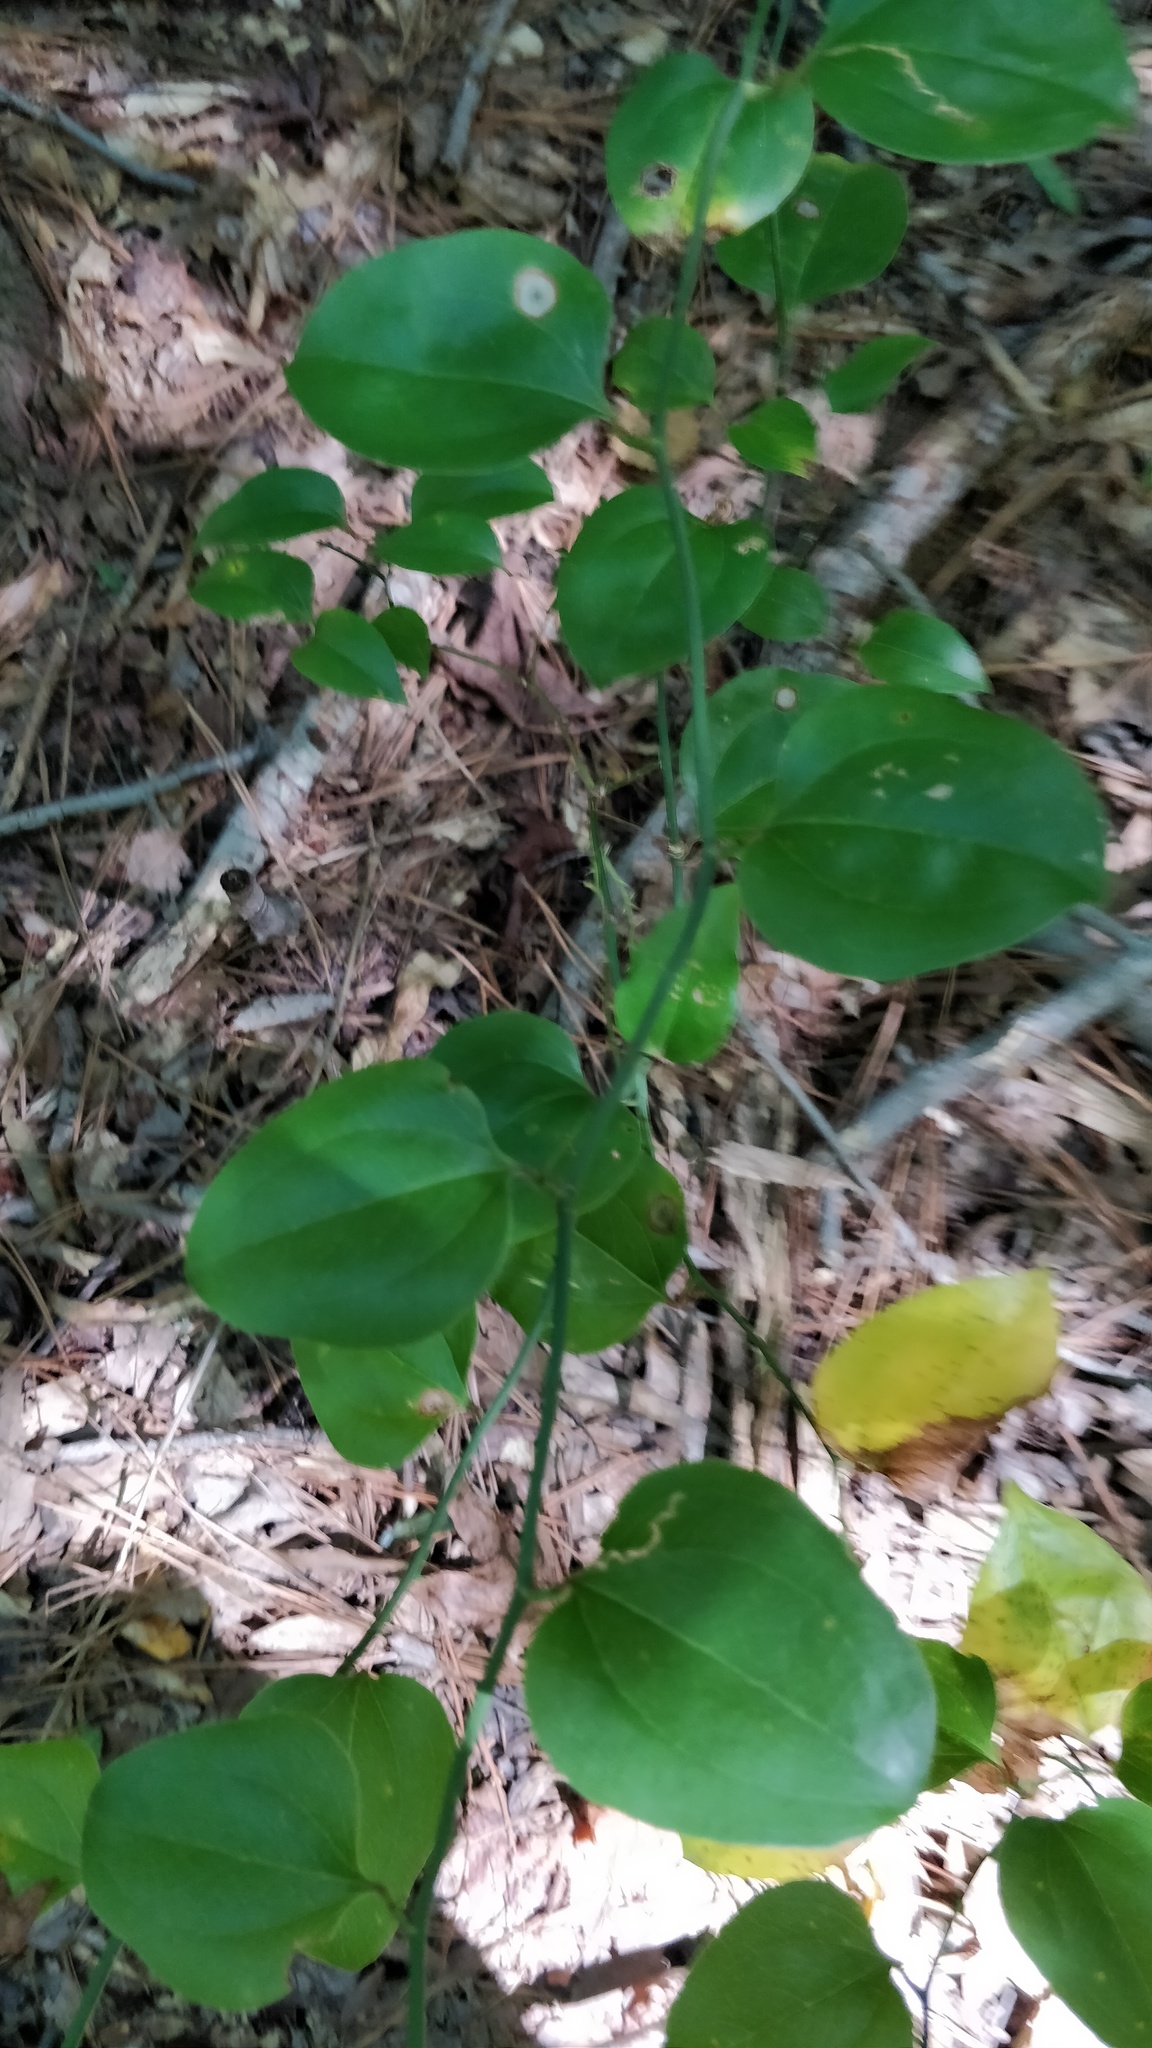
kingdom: Plantae
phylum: Tracheophyta
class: Liliopsida
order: Liliales
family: Smilacaceae
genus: Smilax
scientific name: Smilax rotundifolia
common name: Bullbriar
